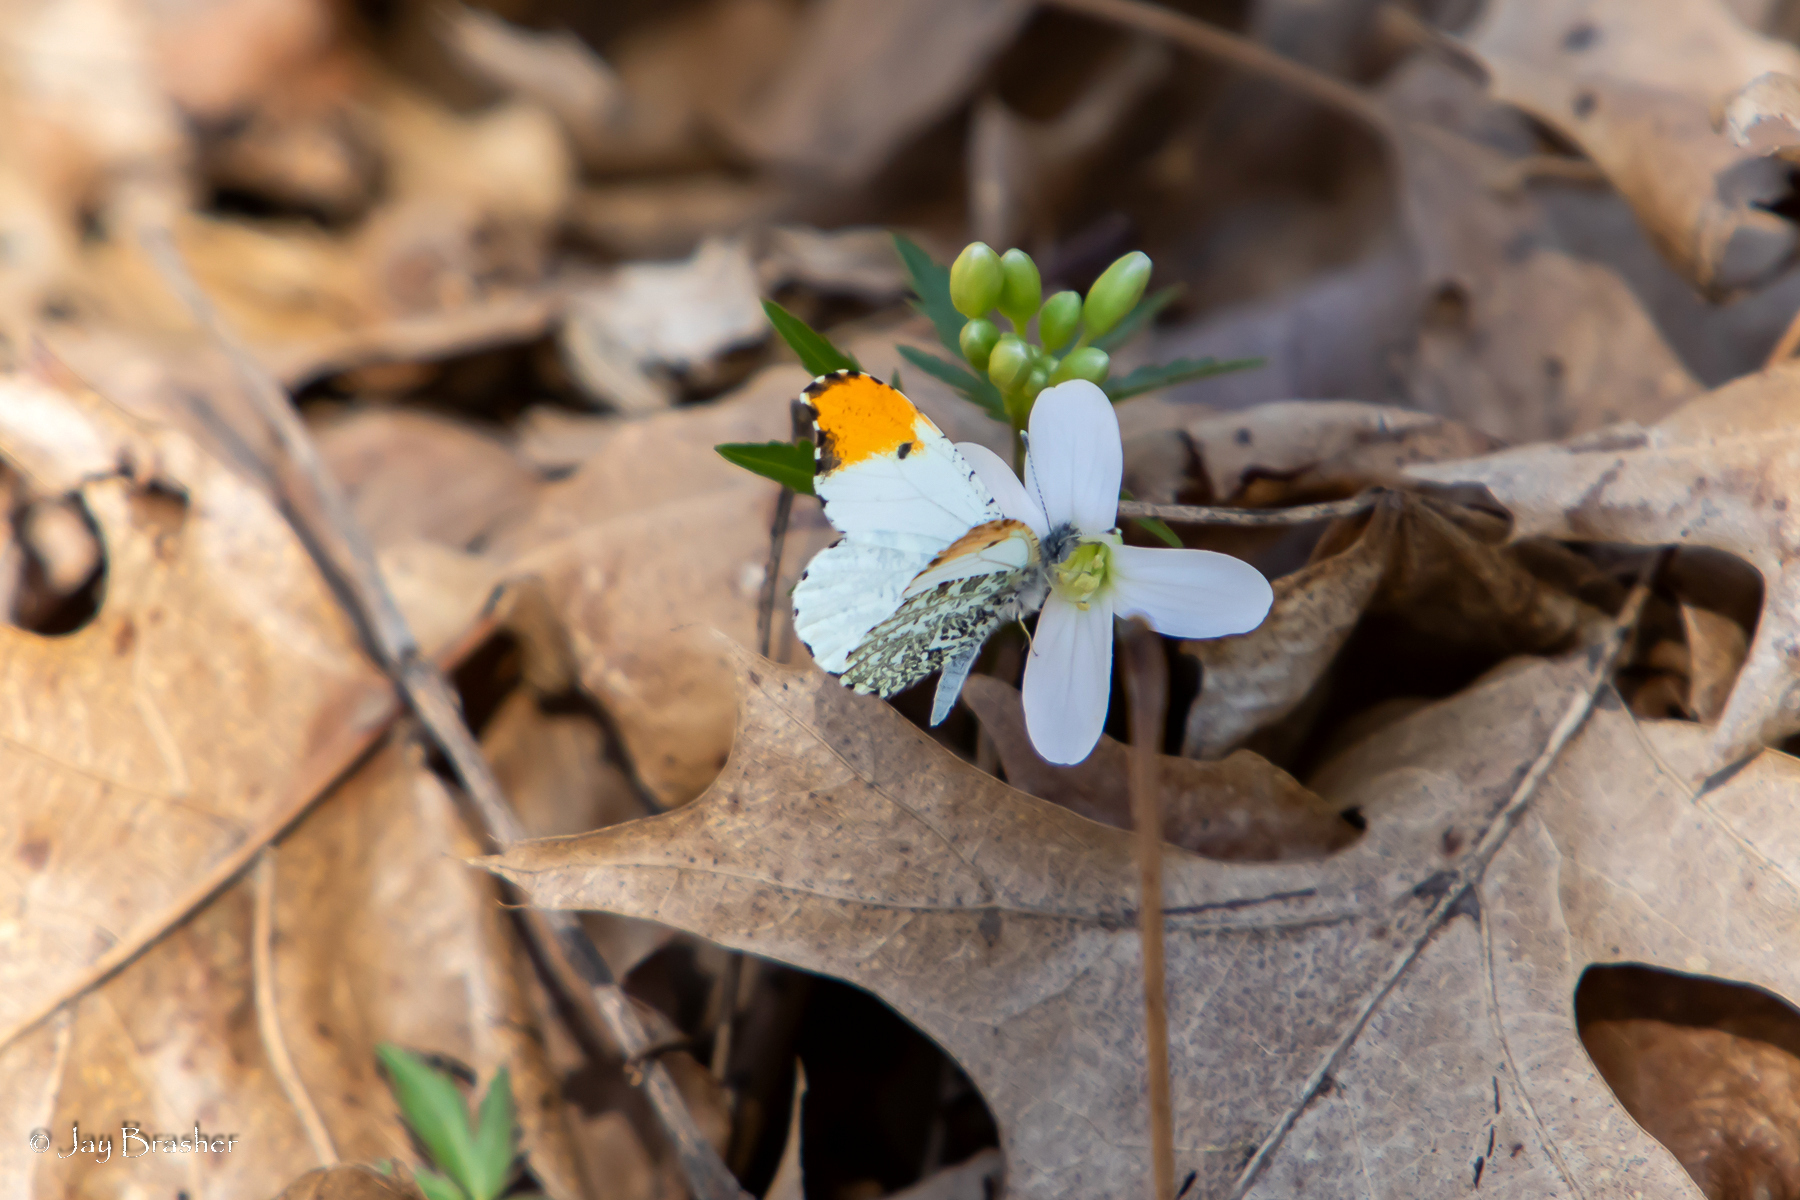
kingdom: Animalia
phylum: Arthropoda
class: Insecta
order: Lepidoptera
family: Pieridae
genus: Anthocharis
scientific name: Anthocharis midea
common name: Falcate orangetip
